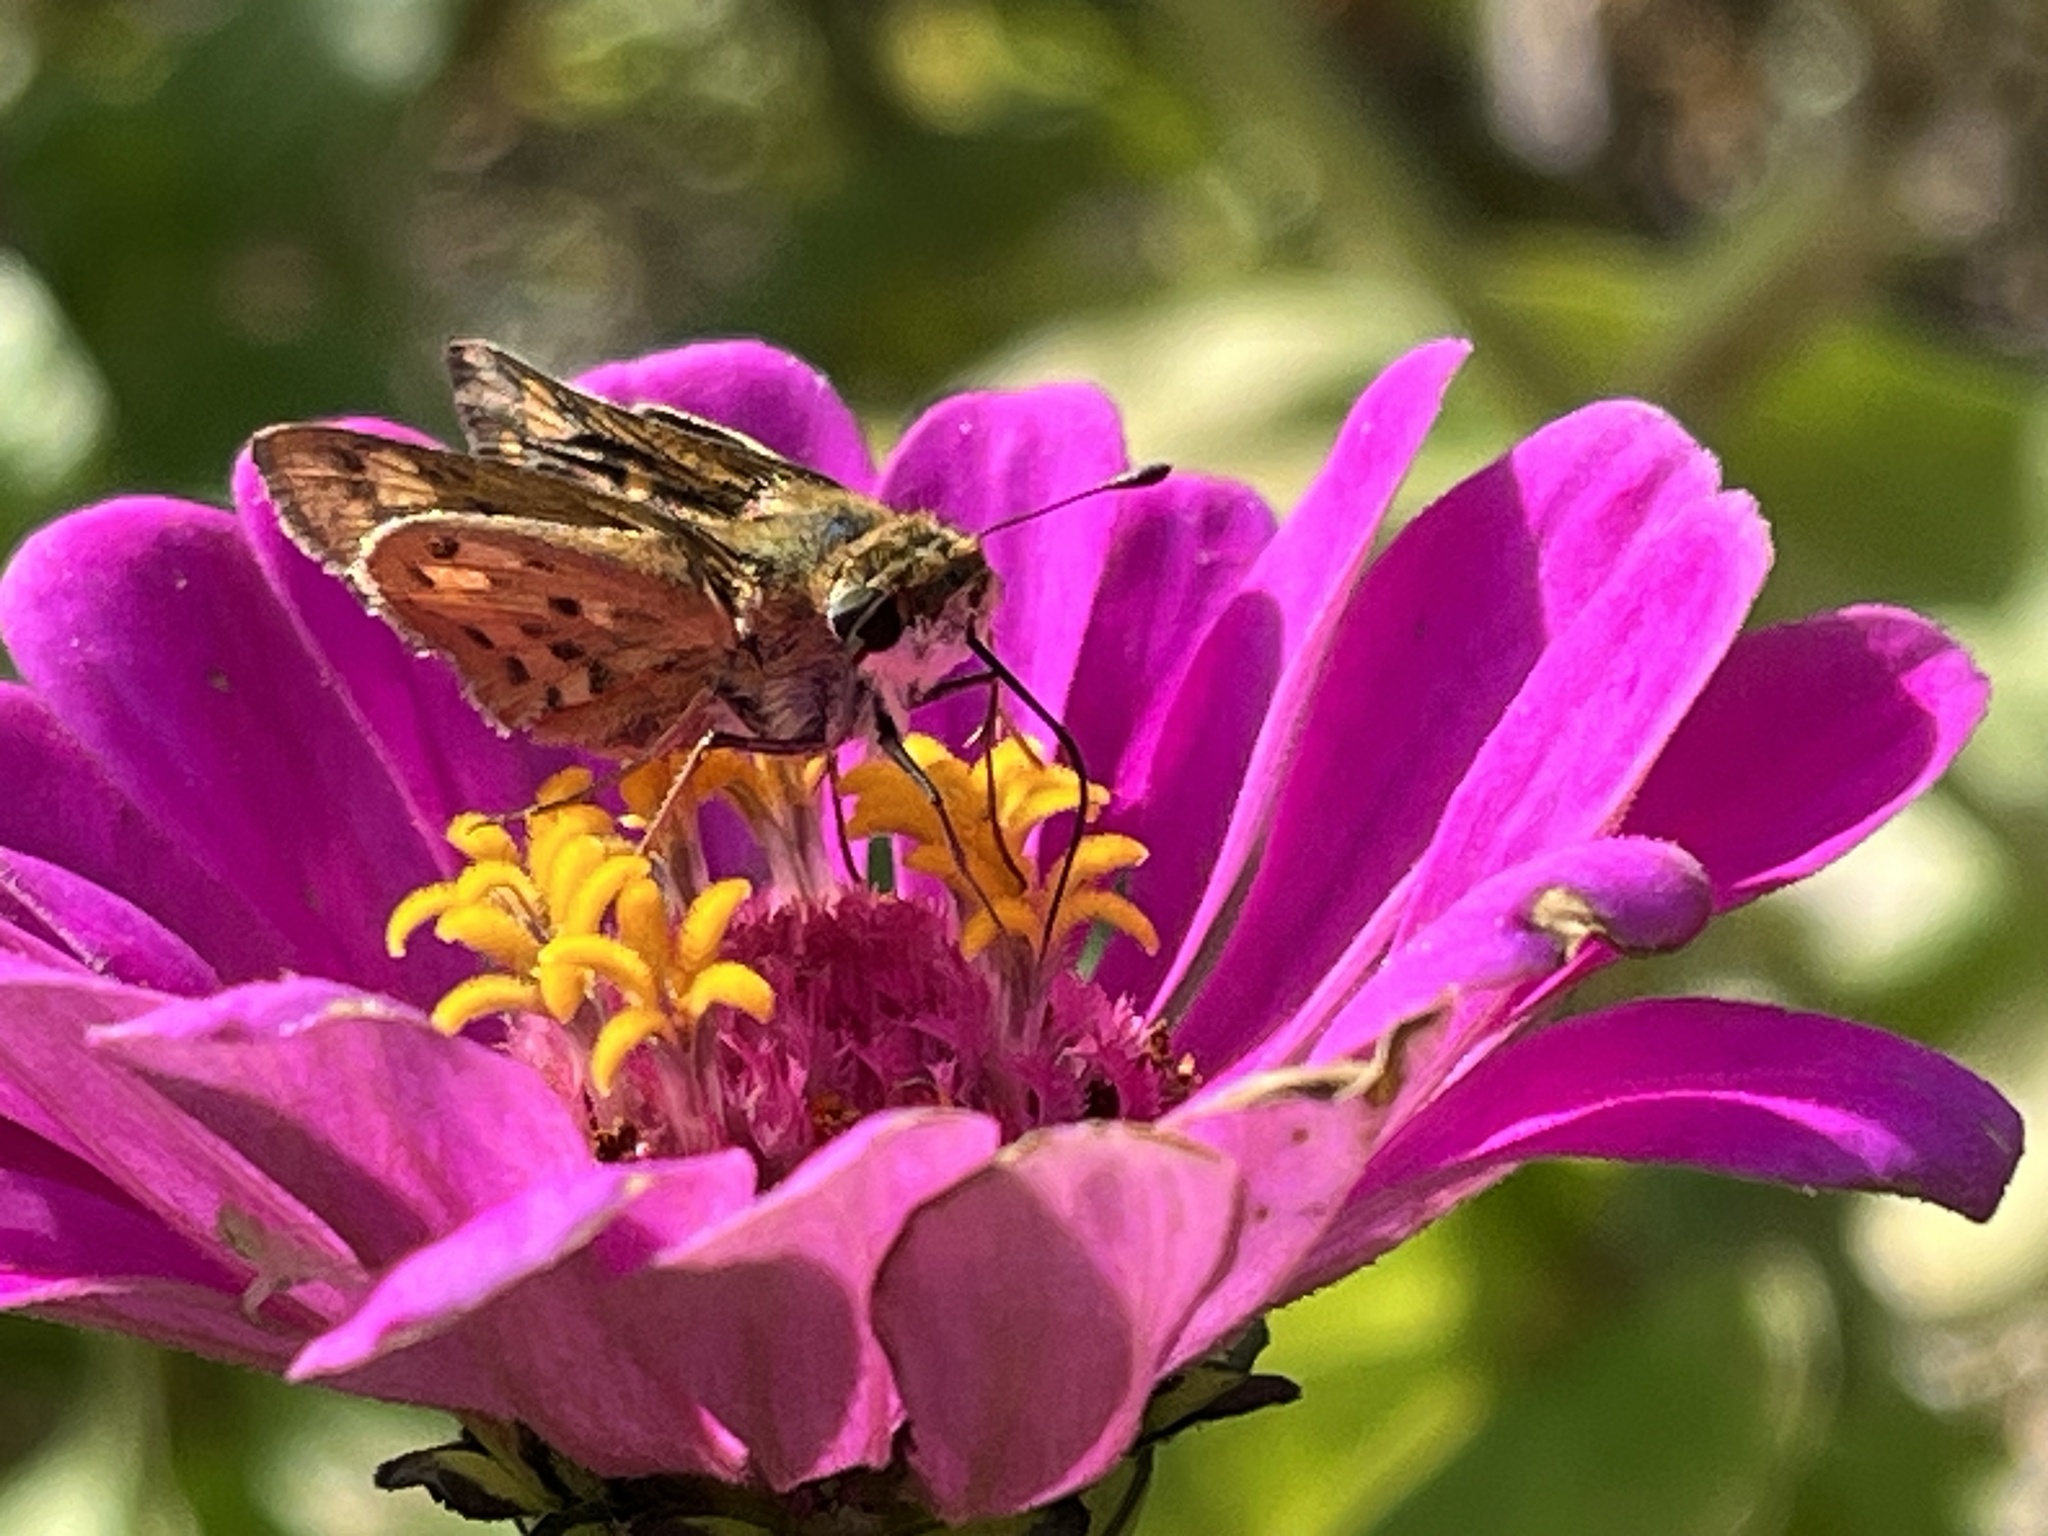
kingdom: Animalia
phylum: Arthropoda
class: Insecta
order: Lepidoptera
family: Hesperiidae
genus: Hylephila
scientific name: Hylephila phyleus
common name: Fiery skipper
